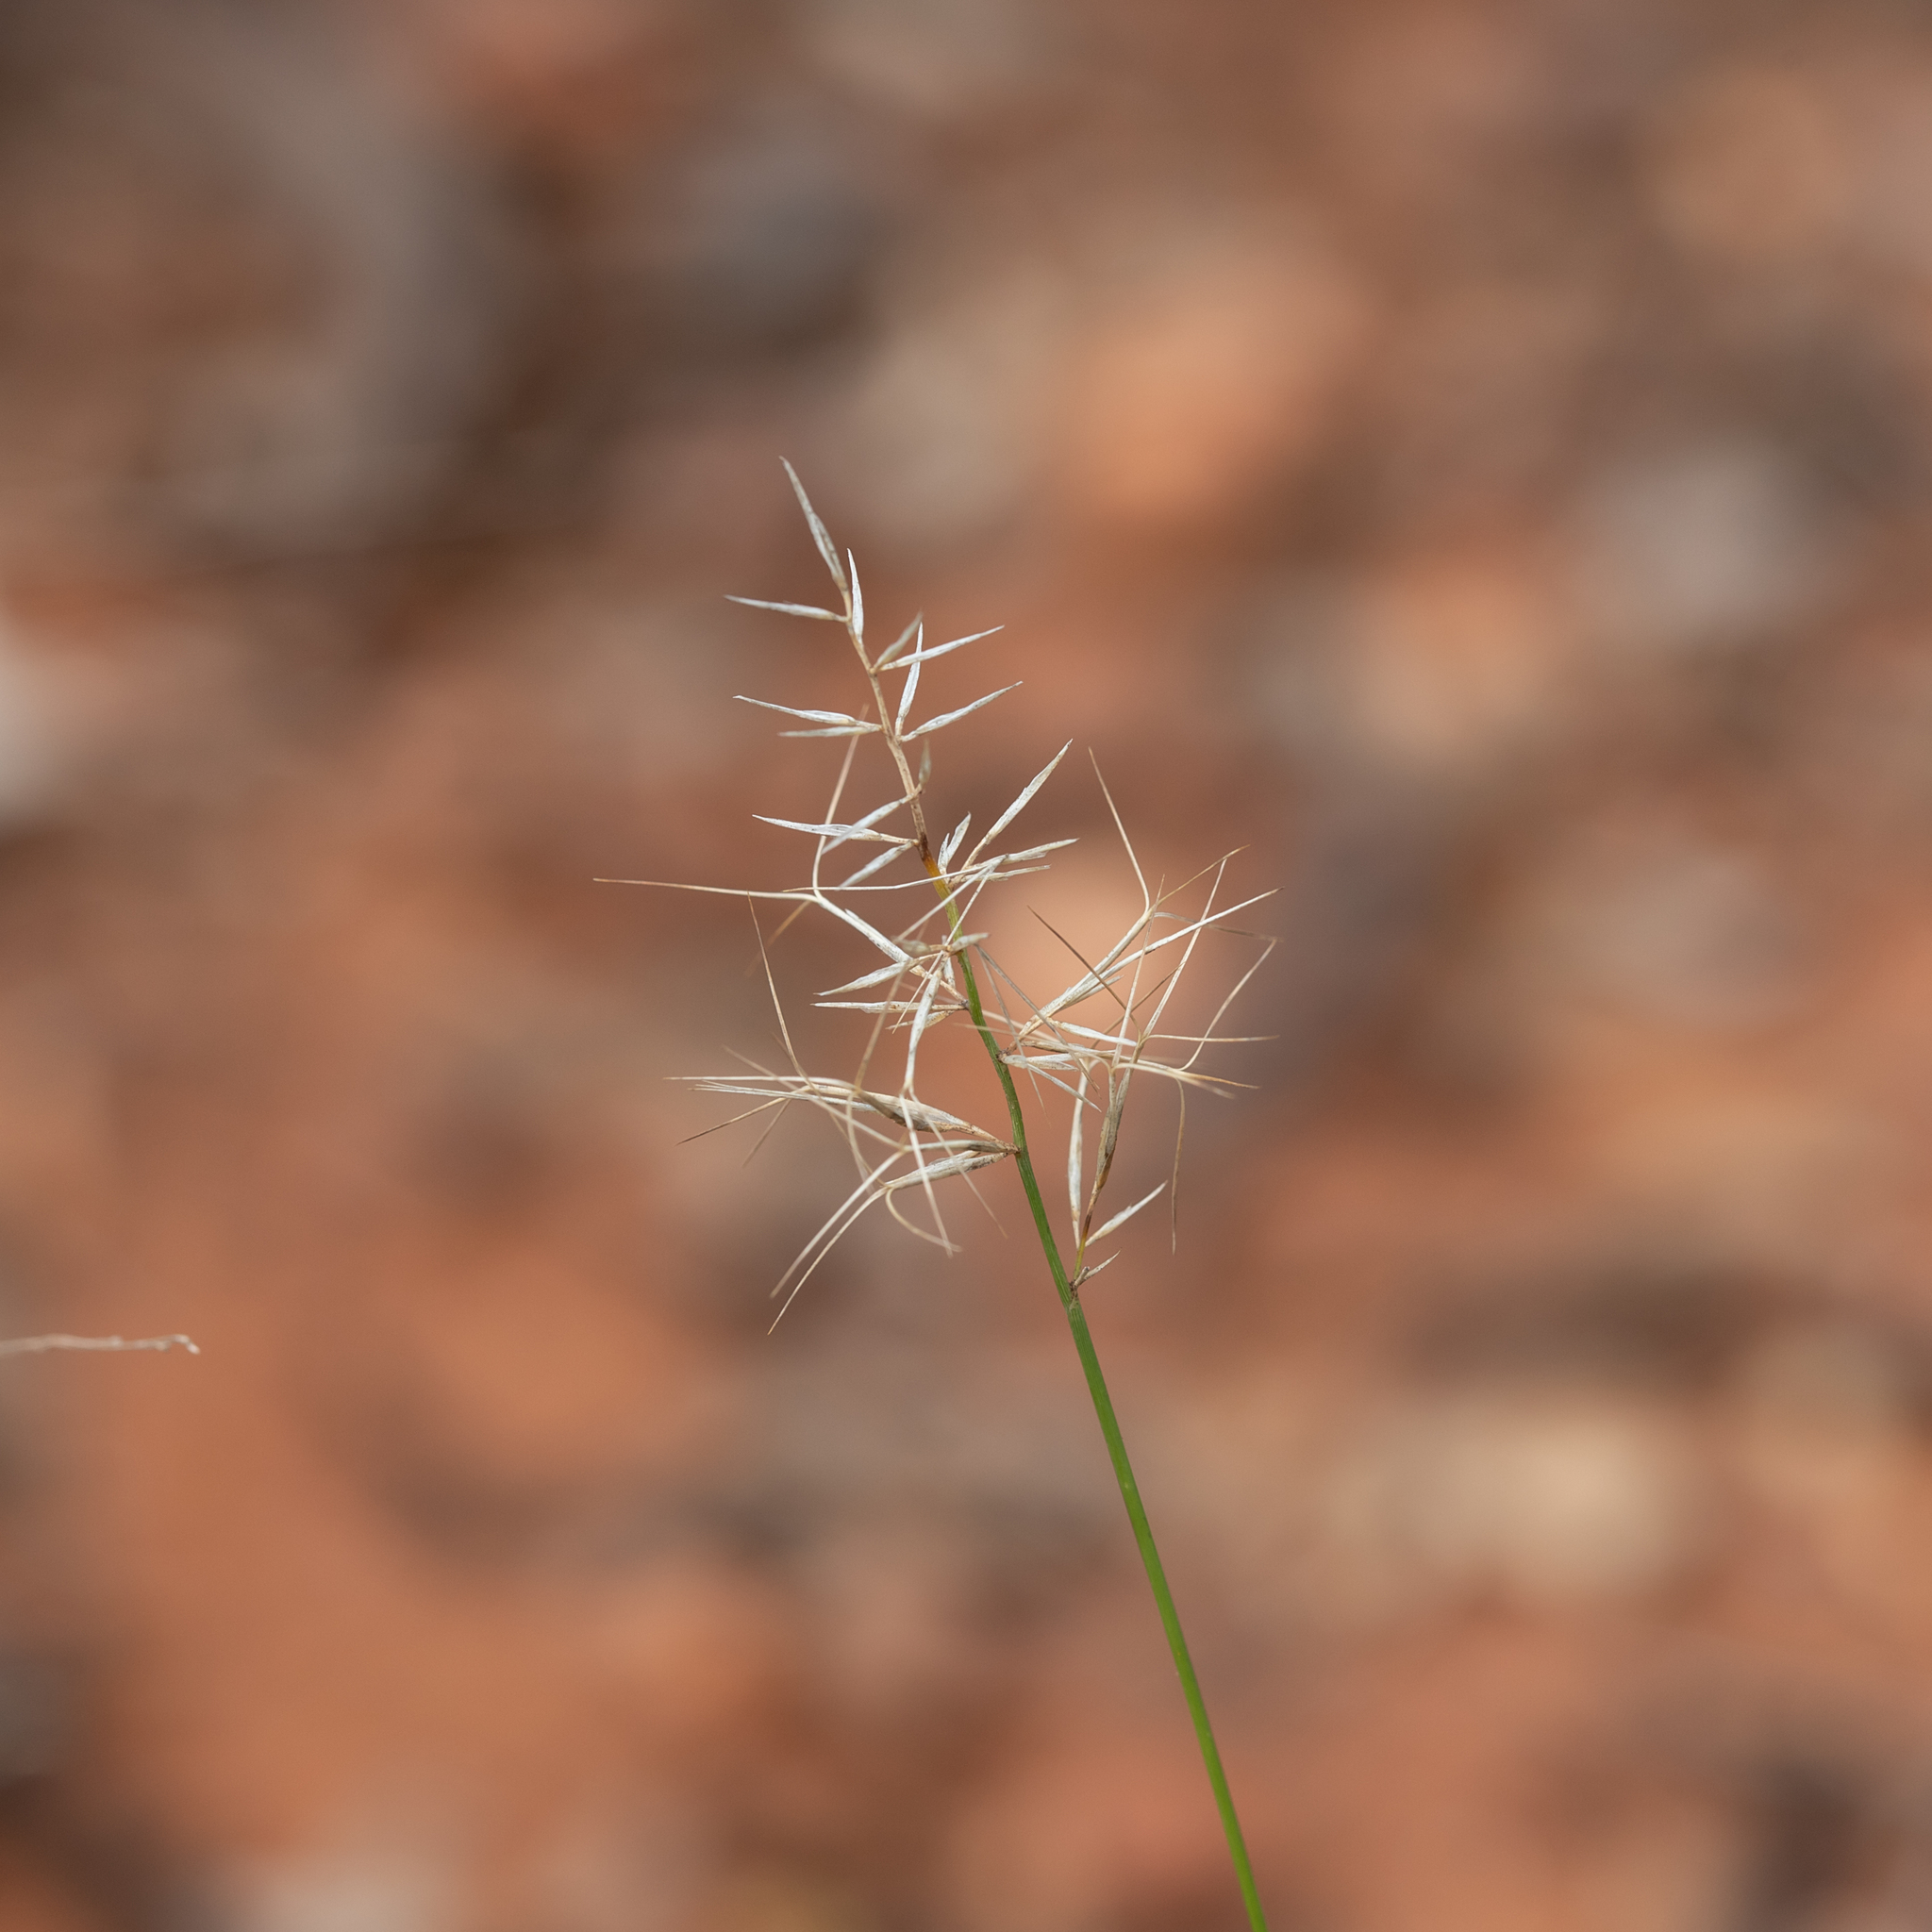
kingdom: Plantae
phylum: Tracheophyta
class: Liliopsida
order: Poales
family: Poaceae
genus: Aristida
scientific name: Aristida caput-medusae
